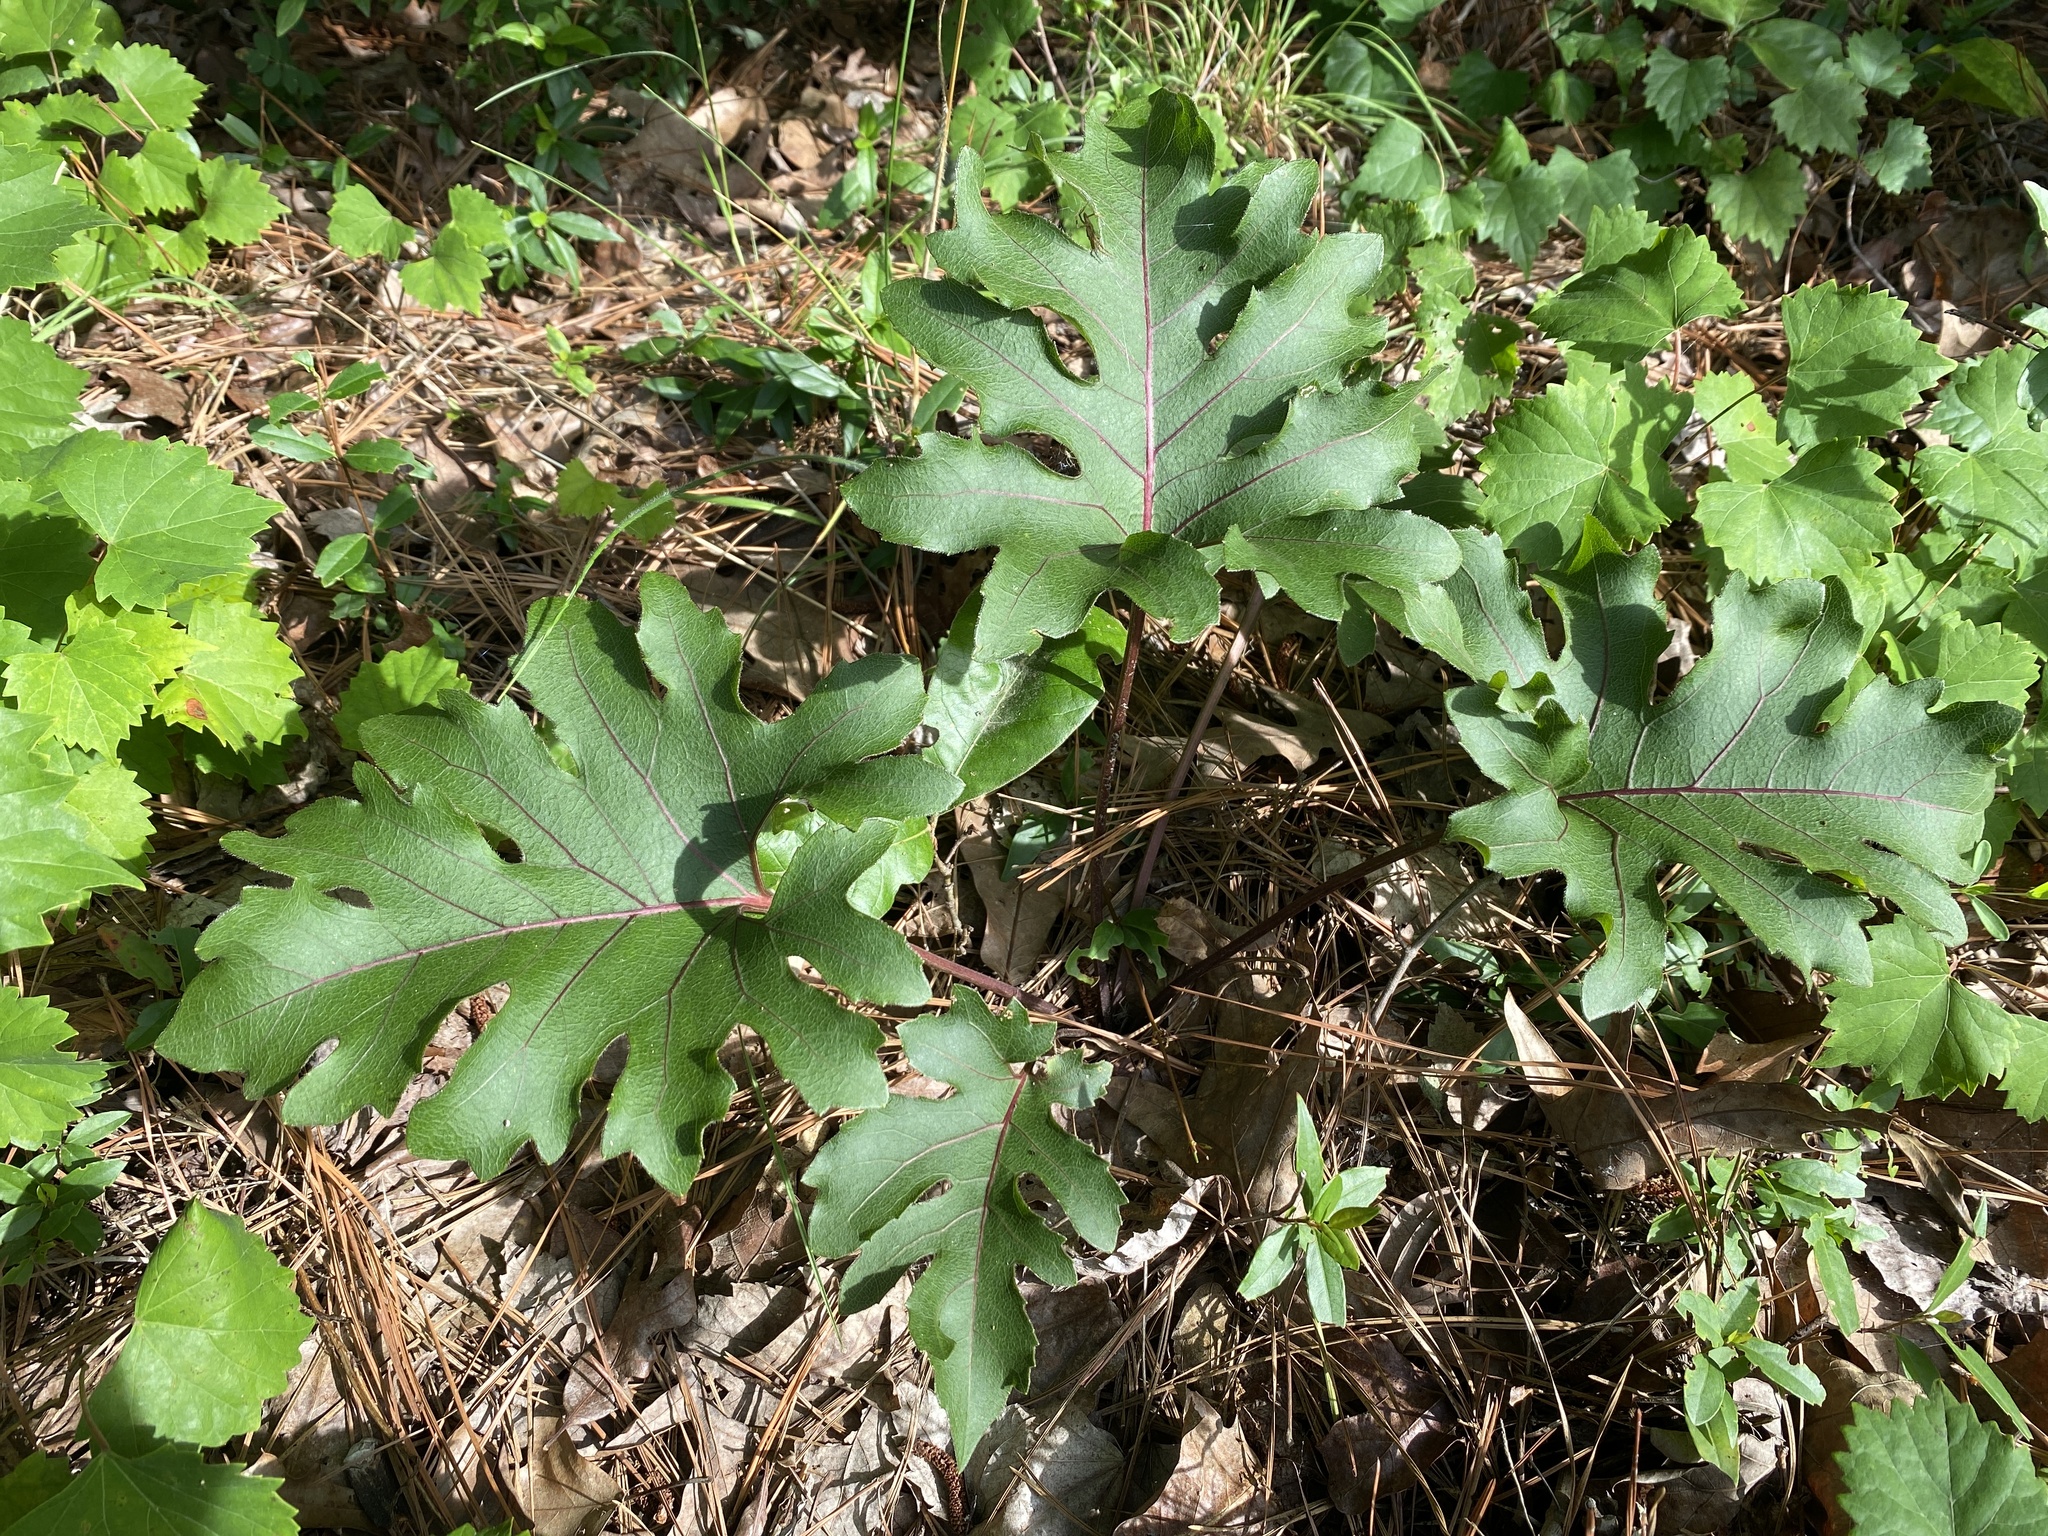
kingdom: Plantae
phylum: Tracheophyta
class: Magnoliopsida
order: Asterales
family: Asteraceae
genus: Silphium
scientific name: Silphium compositum
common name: Lesser basal-leaf rosinweed
